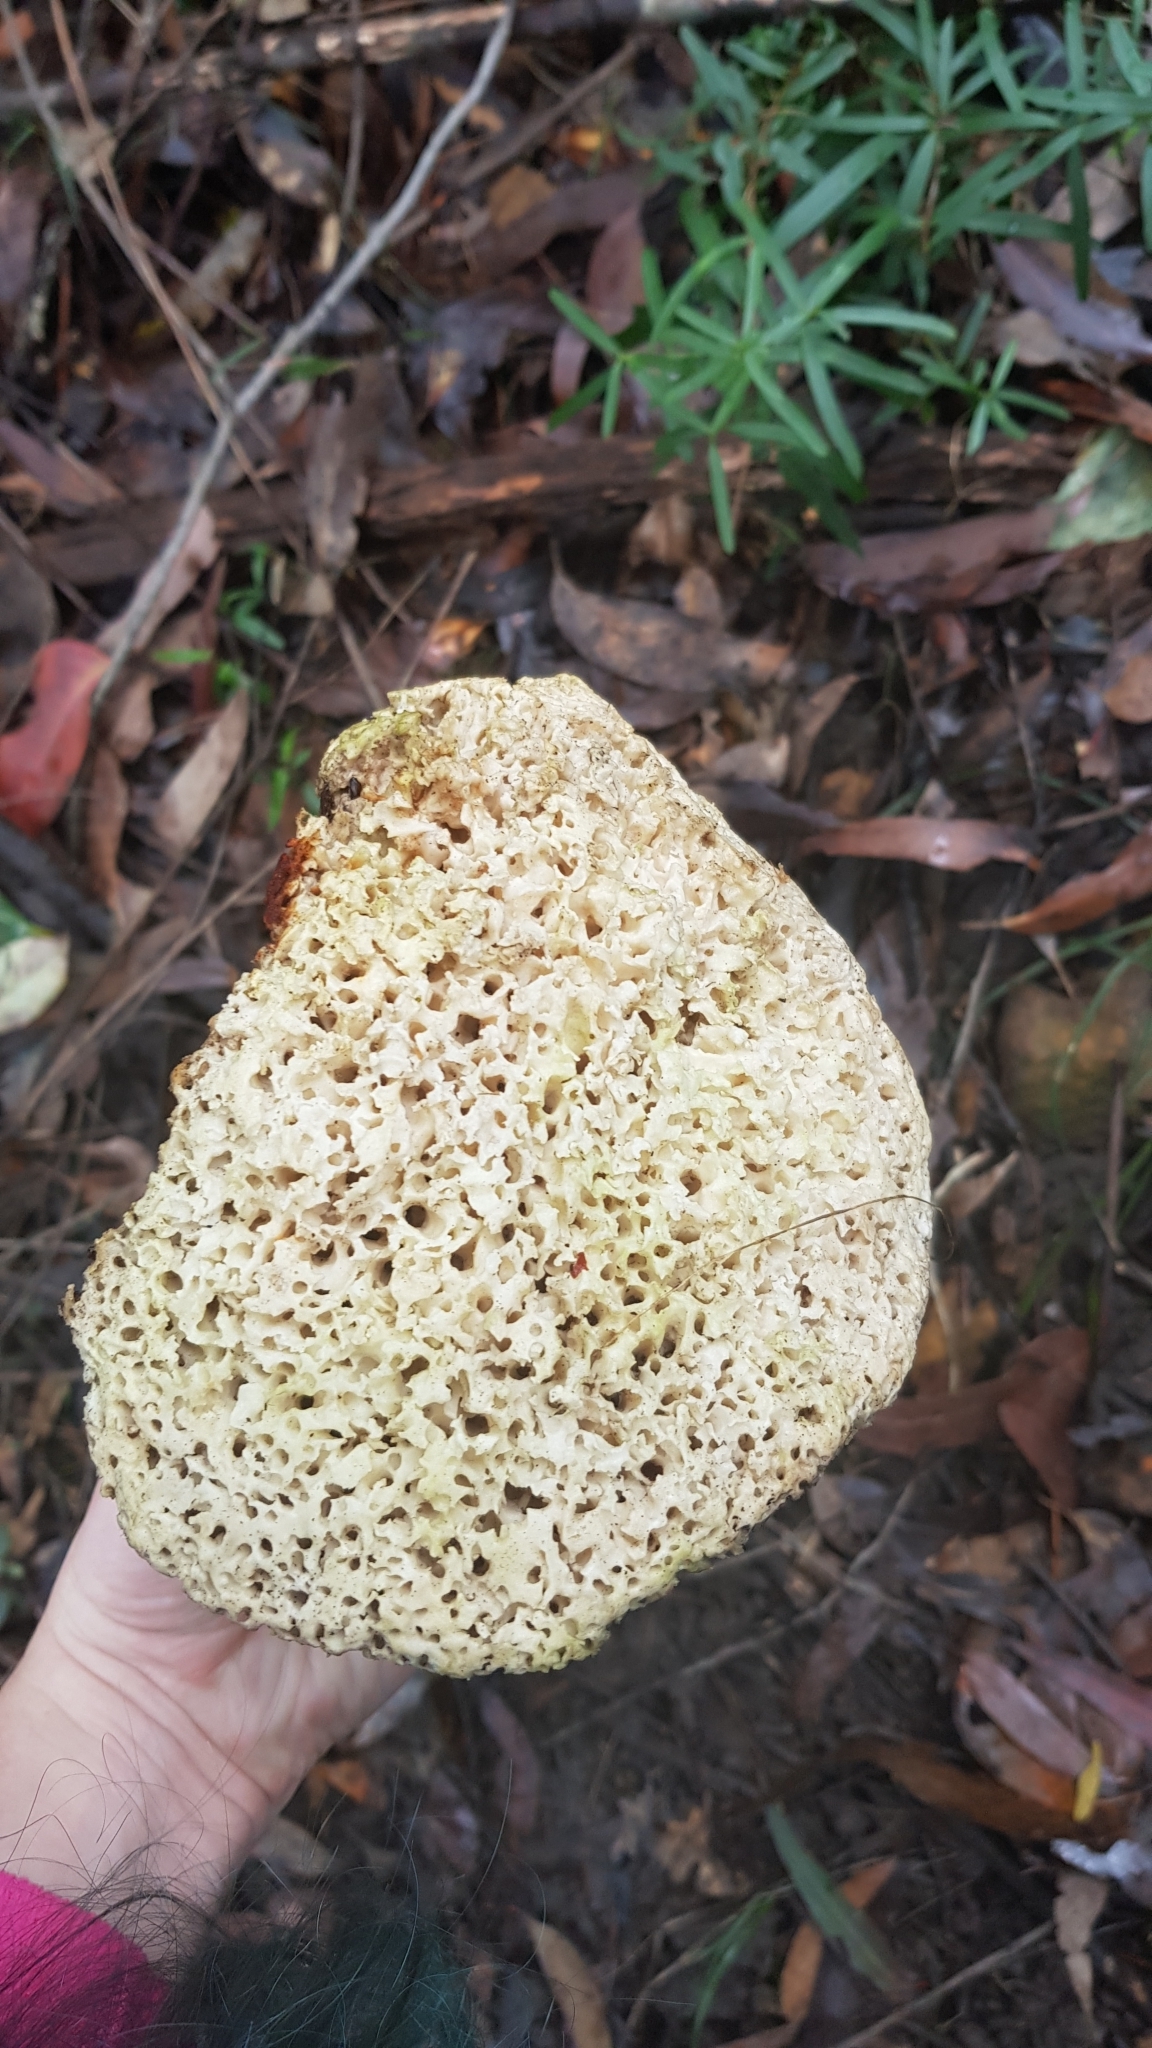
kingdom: Fungi
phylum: Basidiomycota
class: Agaricomycetes
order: Polyporales
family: Laetiporaceae
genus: Laetiporus
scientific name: Laetiporus portentosus
